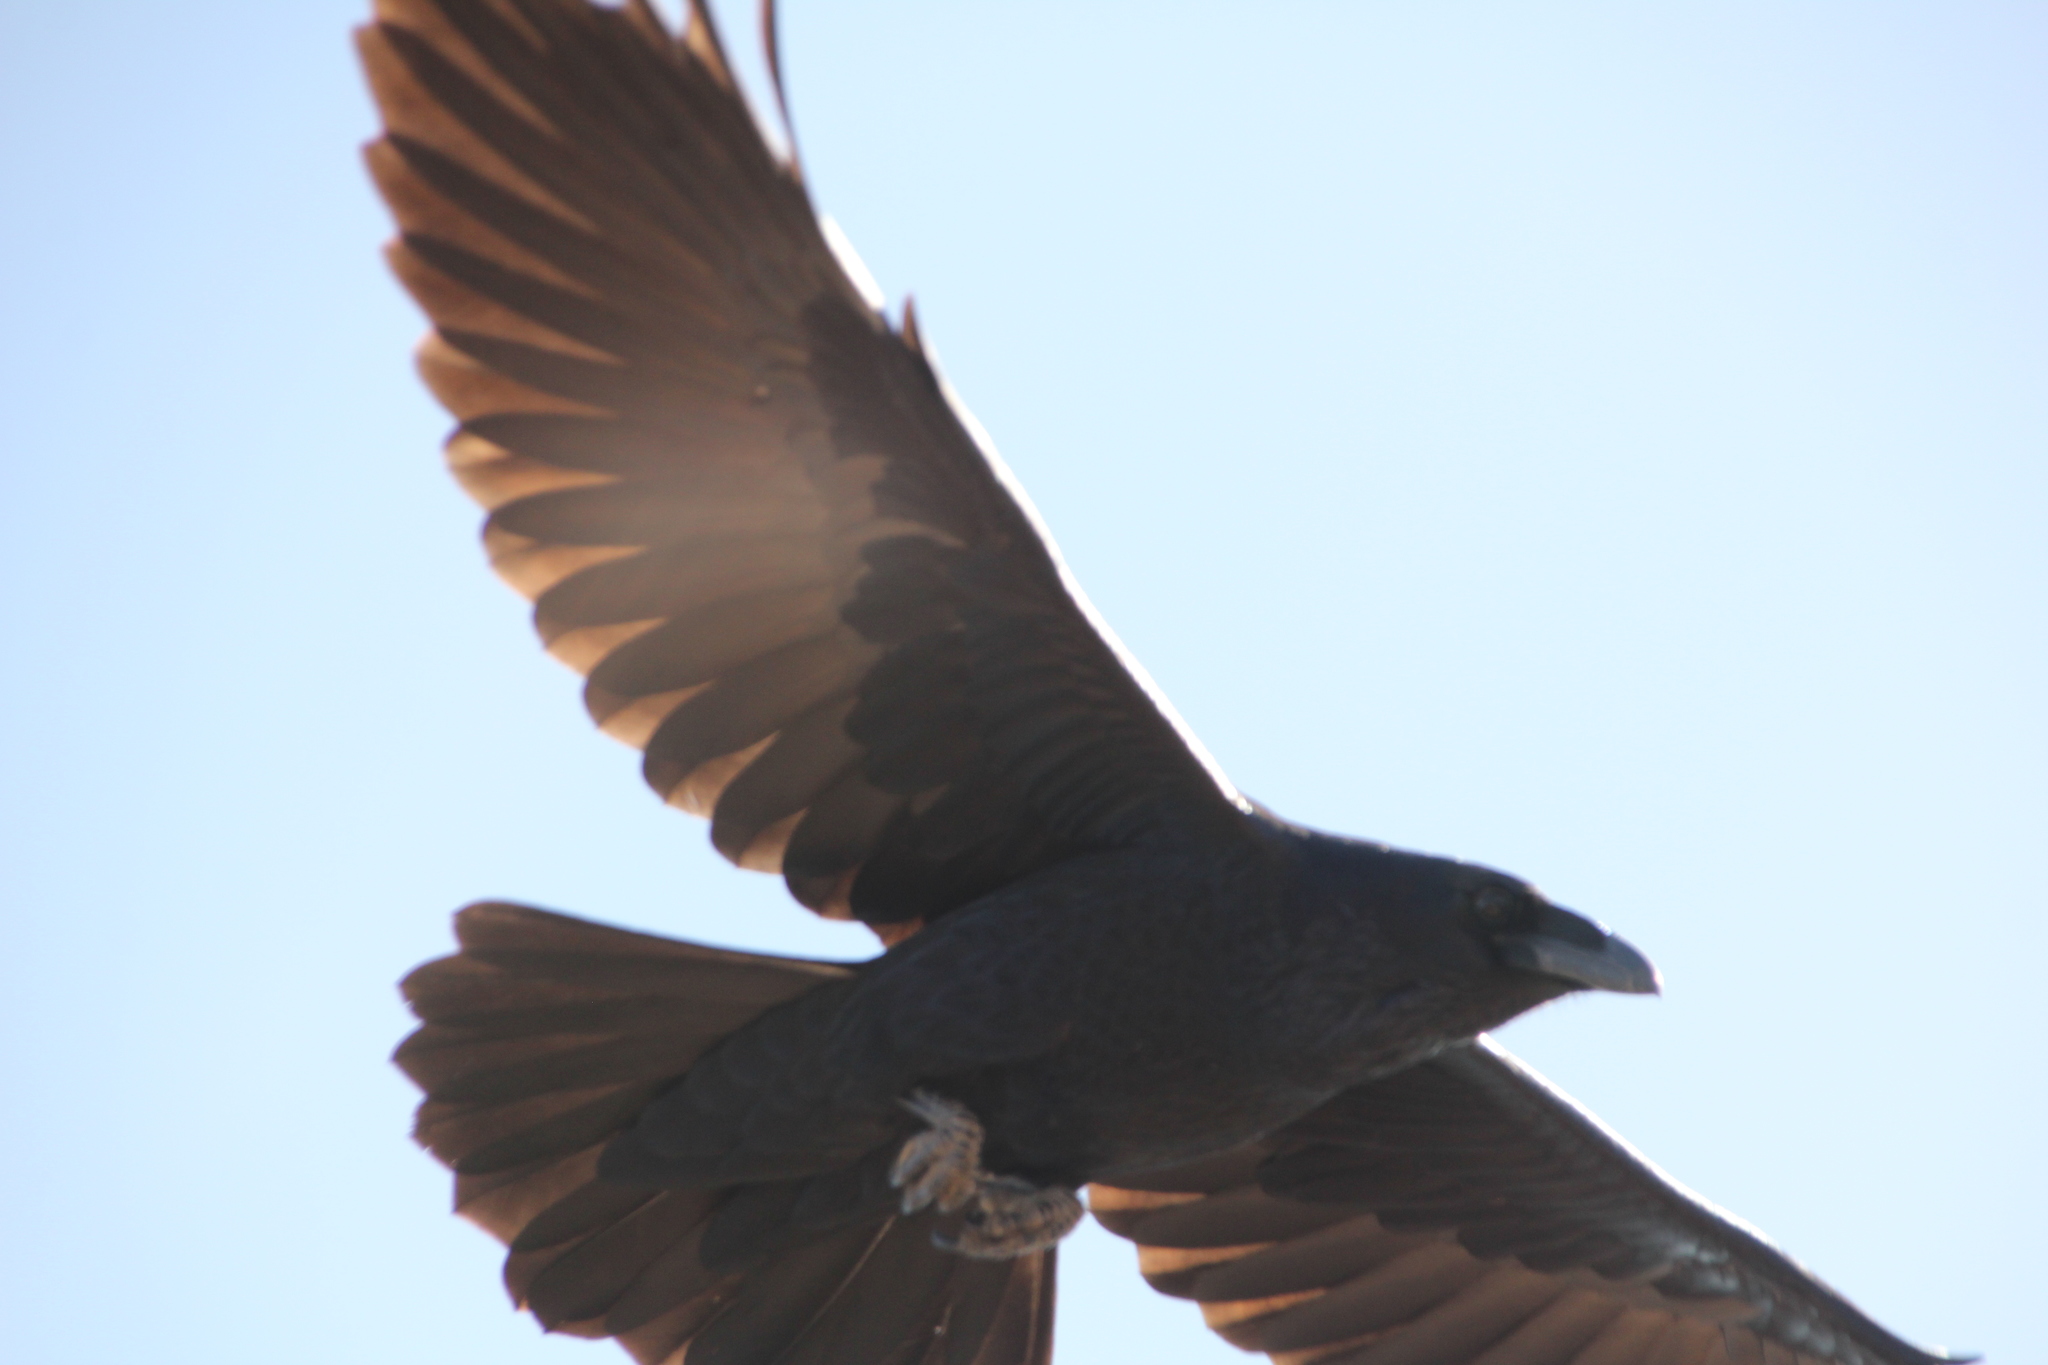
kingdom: Animalia
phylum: Chordata
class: Aves
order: Passeriformes
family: Corvidae
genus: Corvus
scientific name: Corvus corax
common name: Common raven
